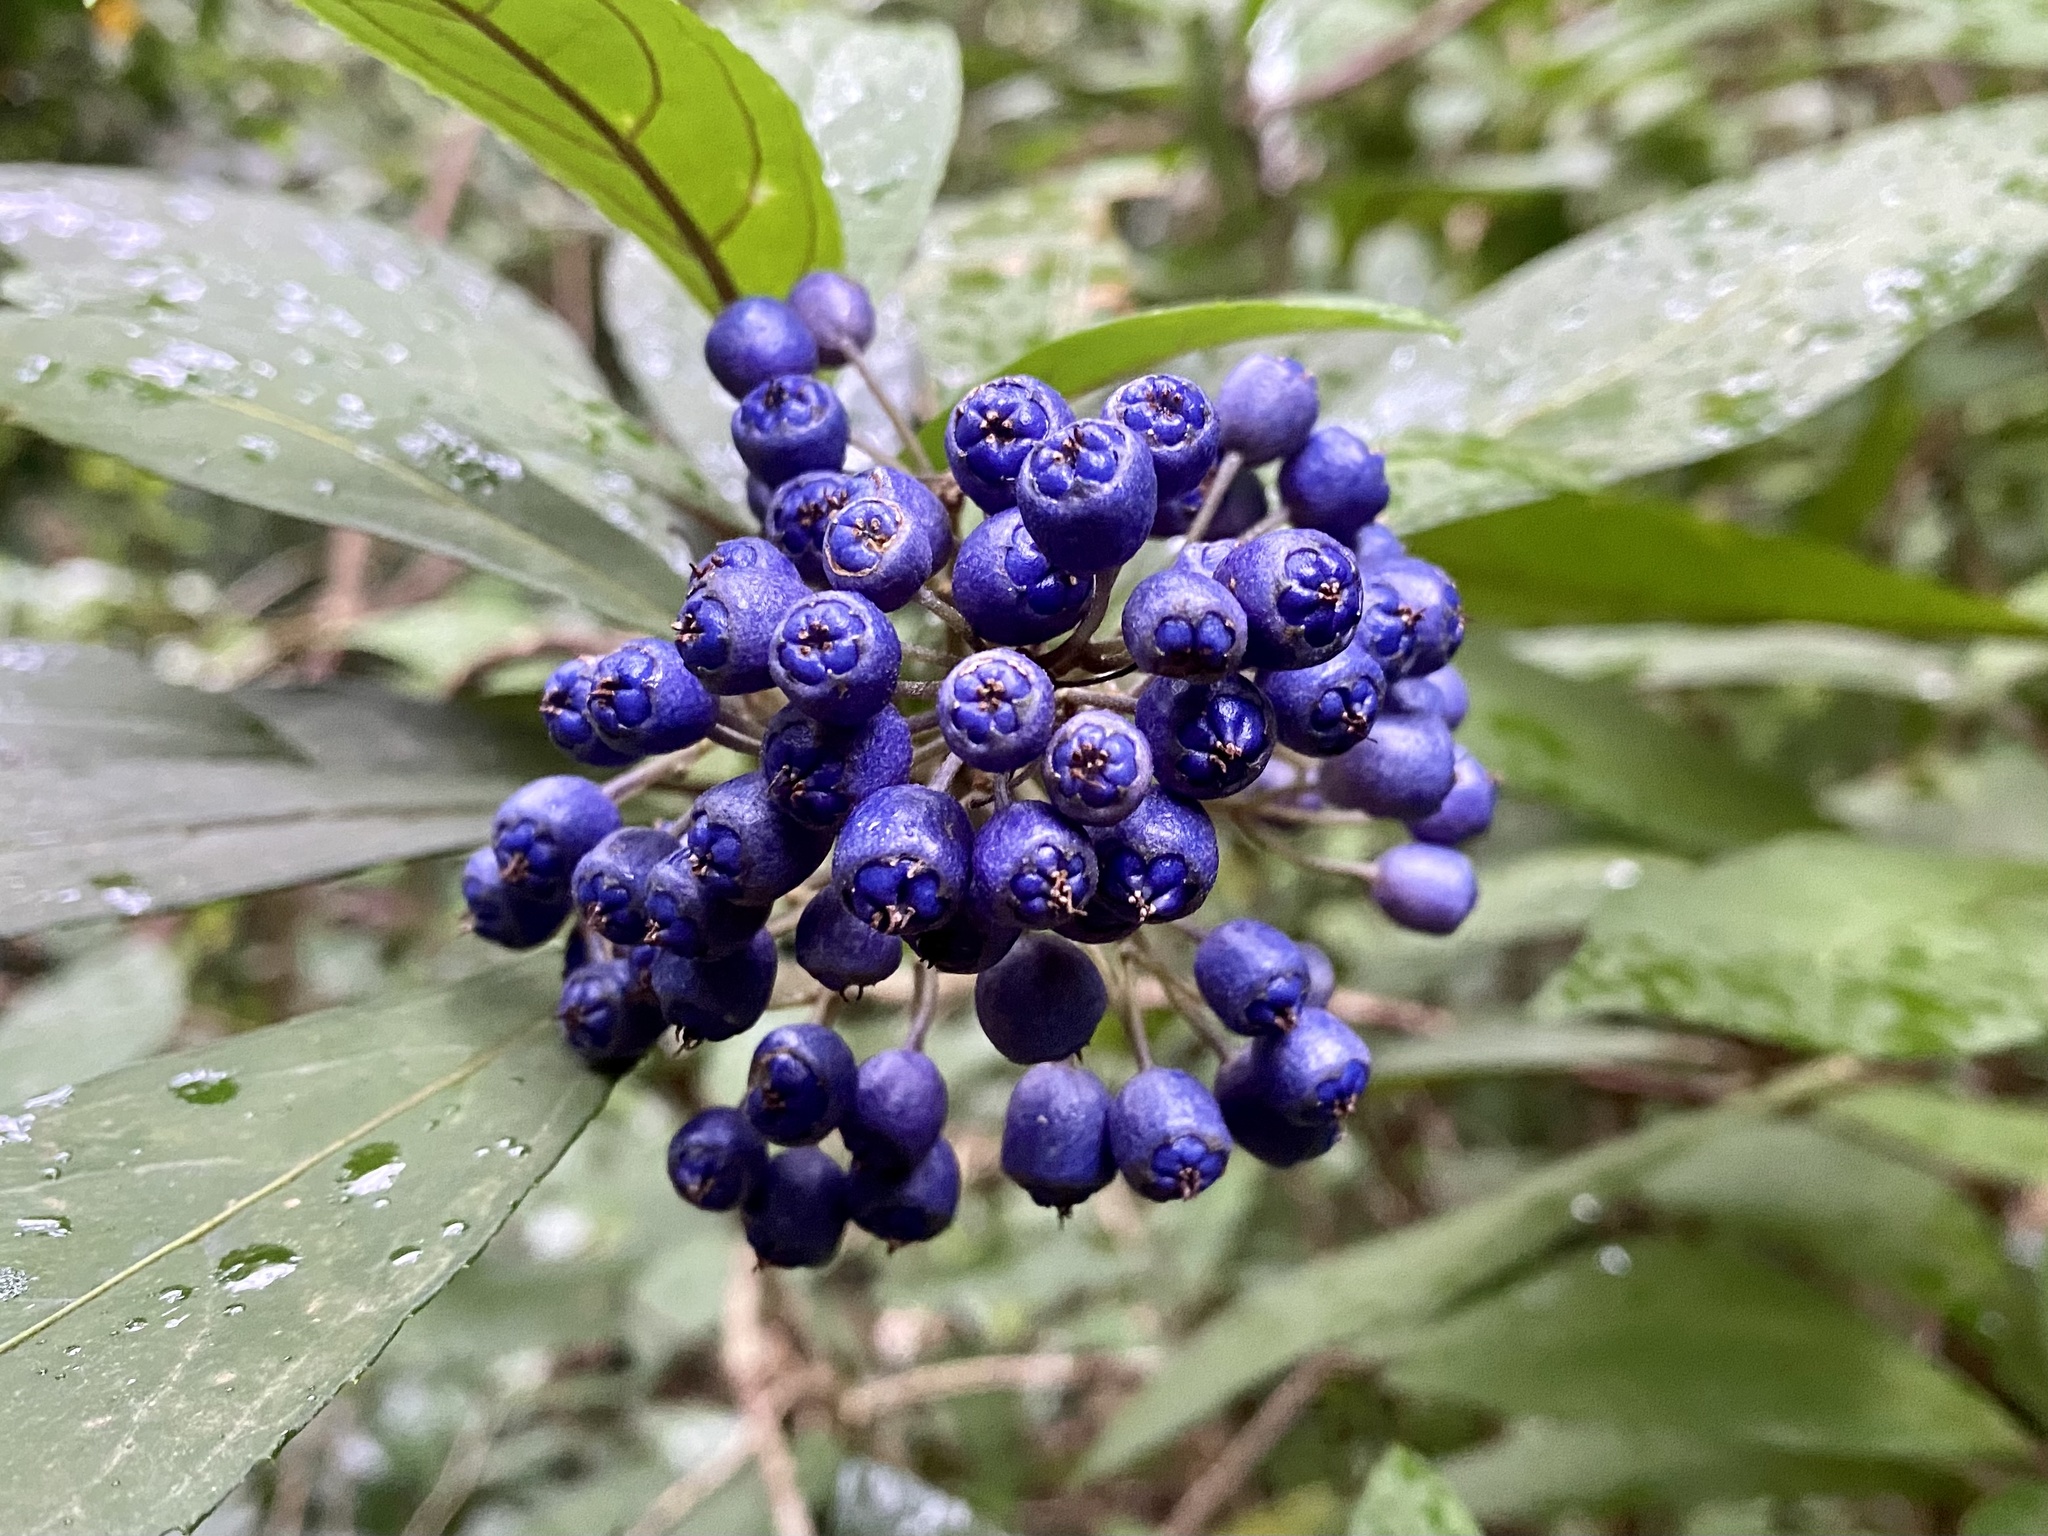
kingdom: Plantae
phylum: Tracheophyta
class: Magnoliopsida
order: Cornales
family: Hydrangeaceae
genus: Hydrangea
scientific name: Hydrangea febrifuga
